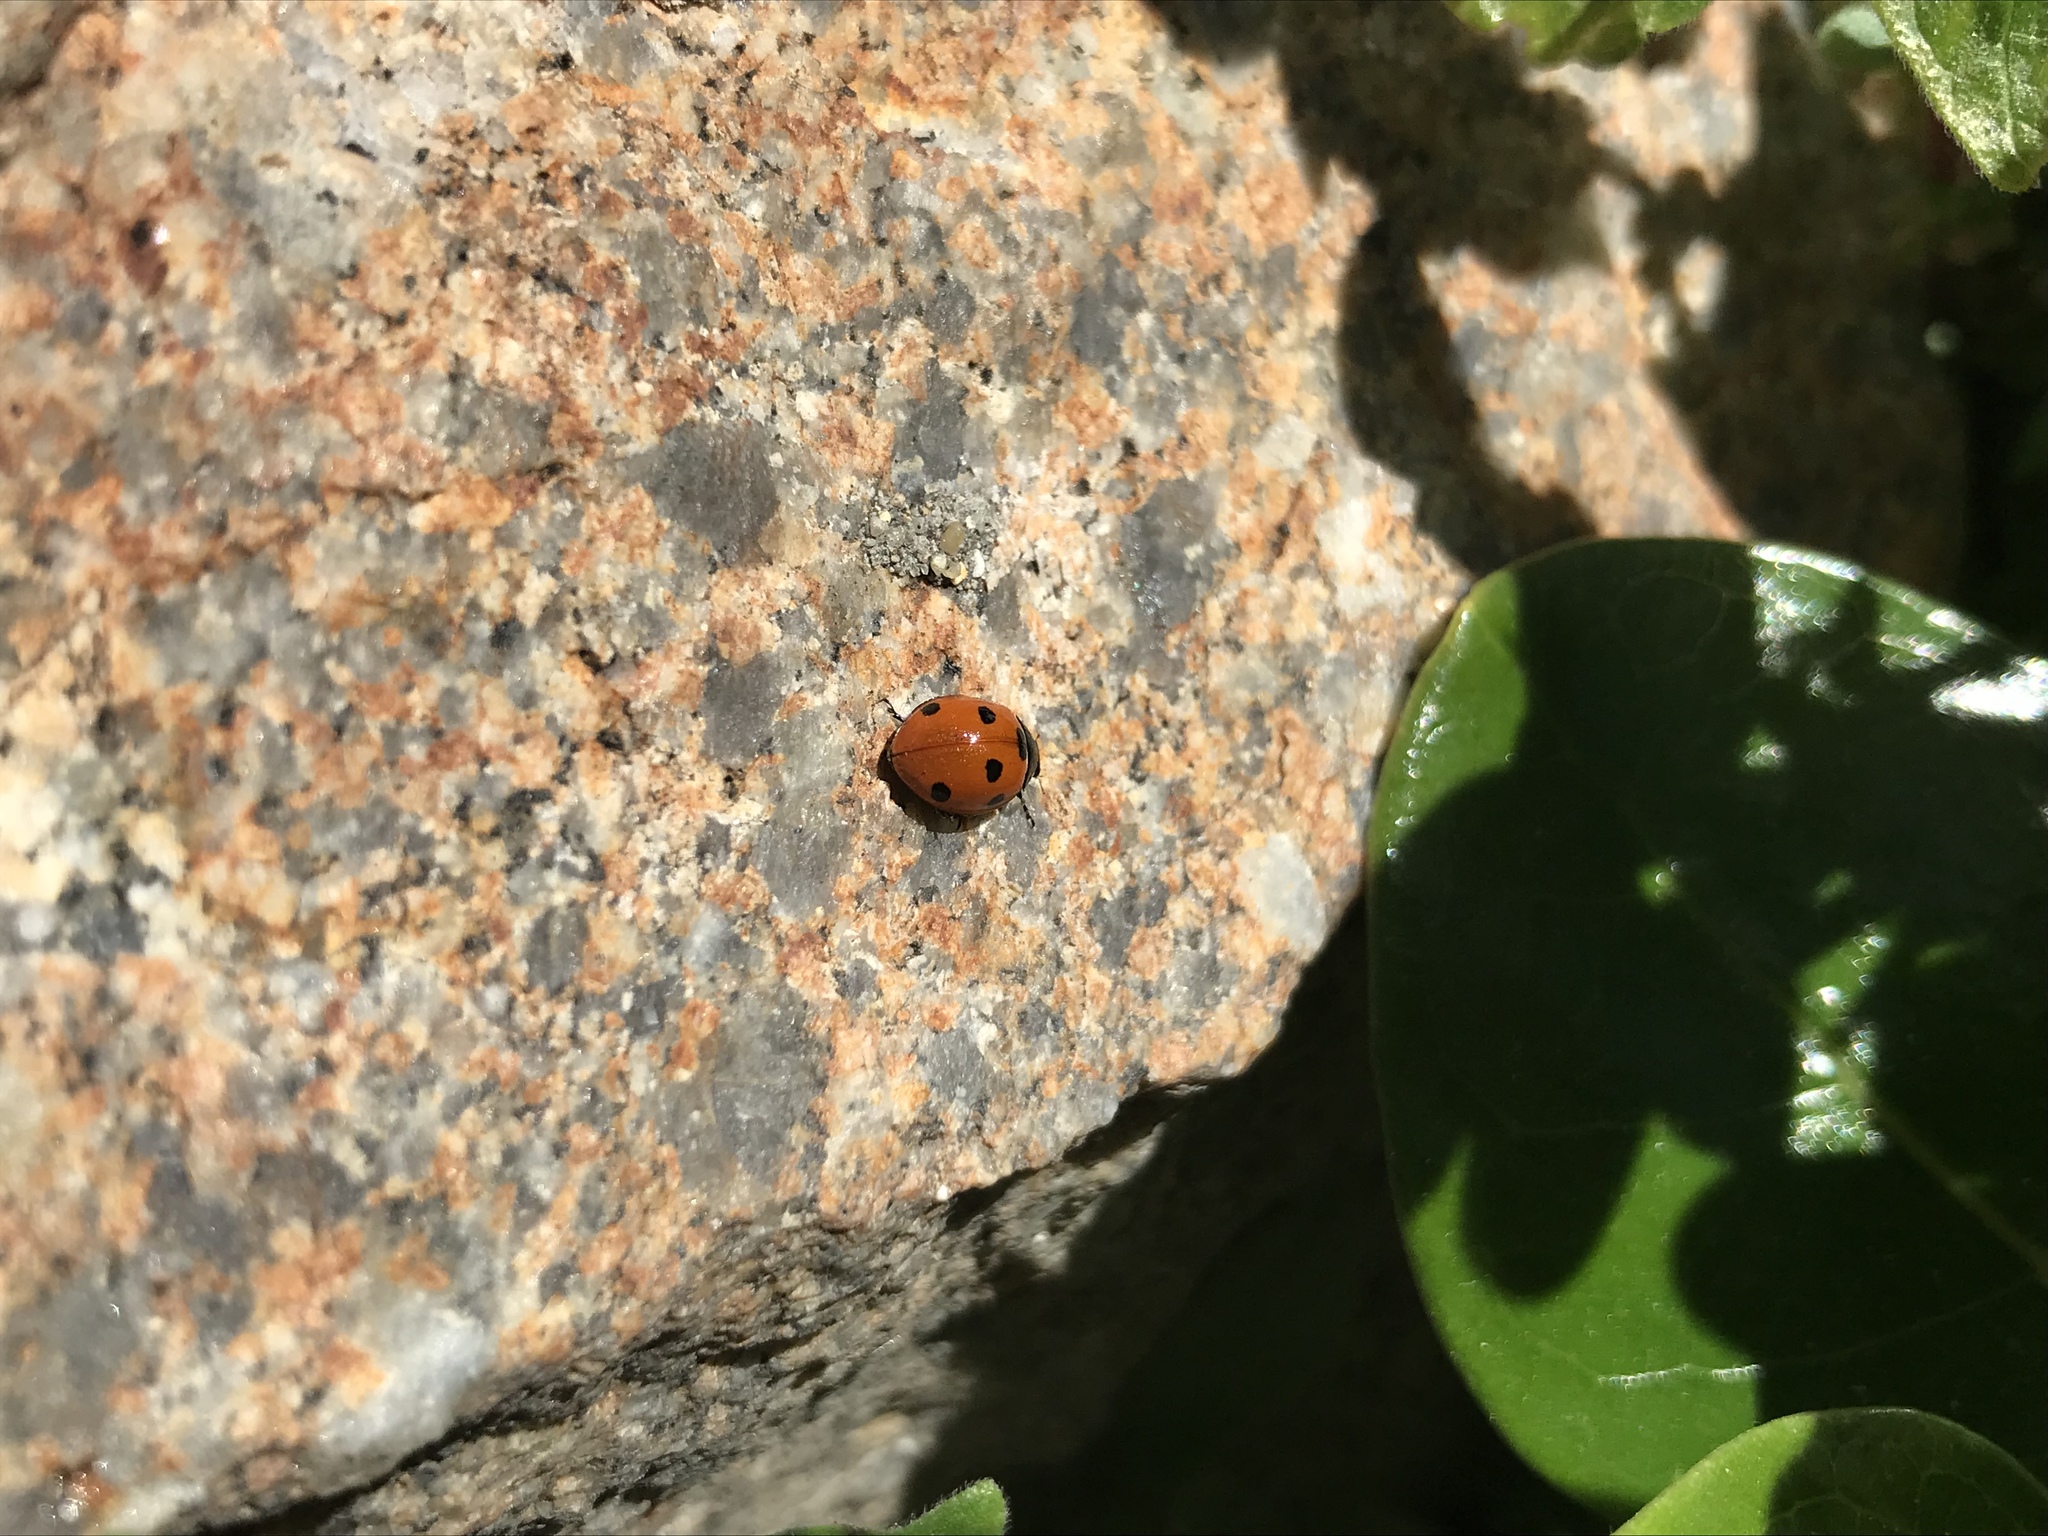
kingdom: Animalia
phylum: Arthropoda
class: Insecta
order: Coleoptera
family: Coccinellidae
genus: Coccinella
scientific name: Coccinella septempunctata
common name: Sevenspotted lady beetle
